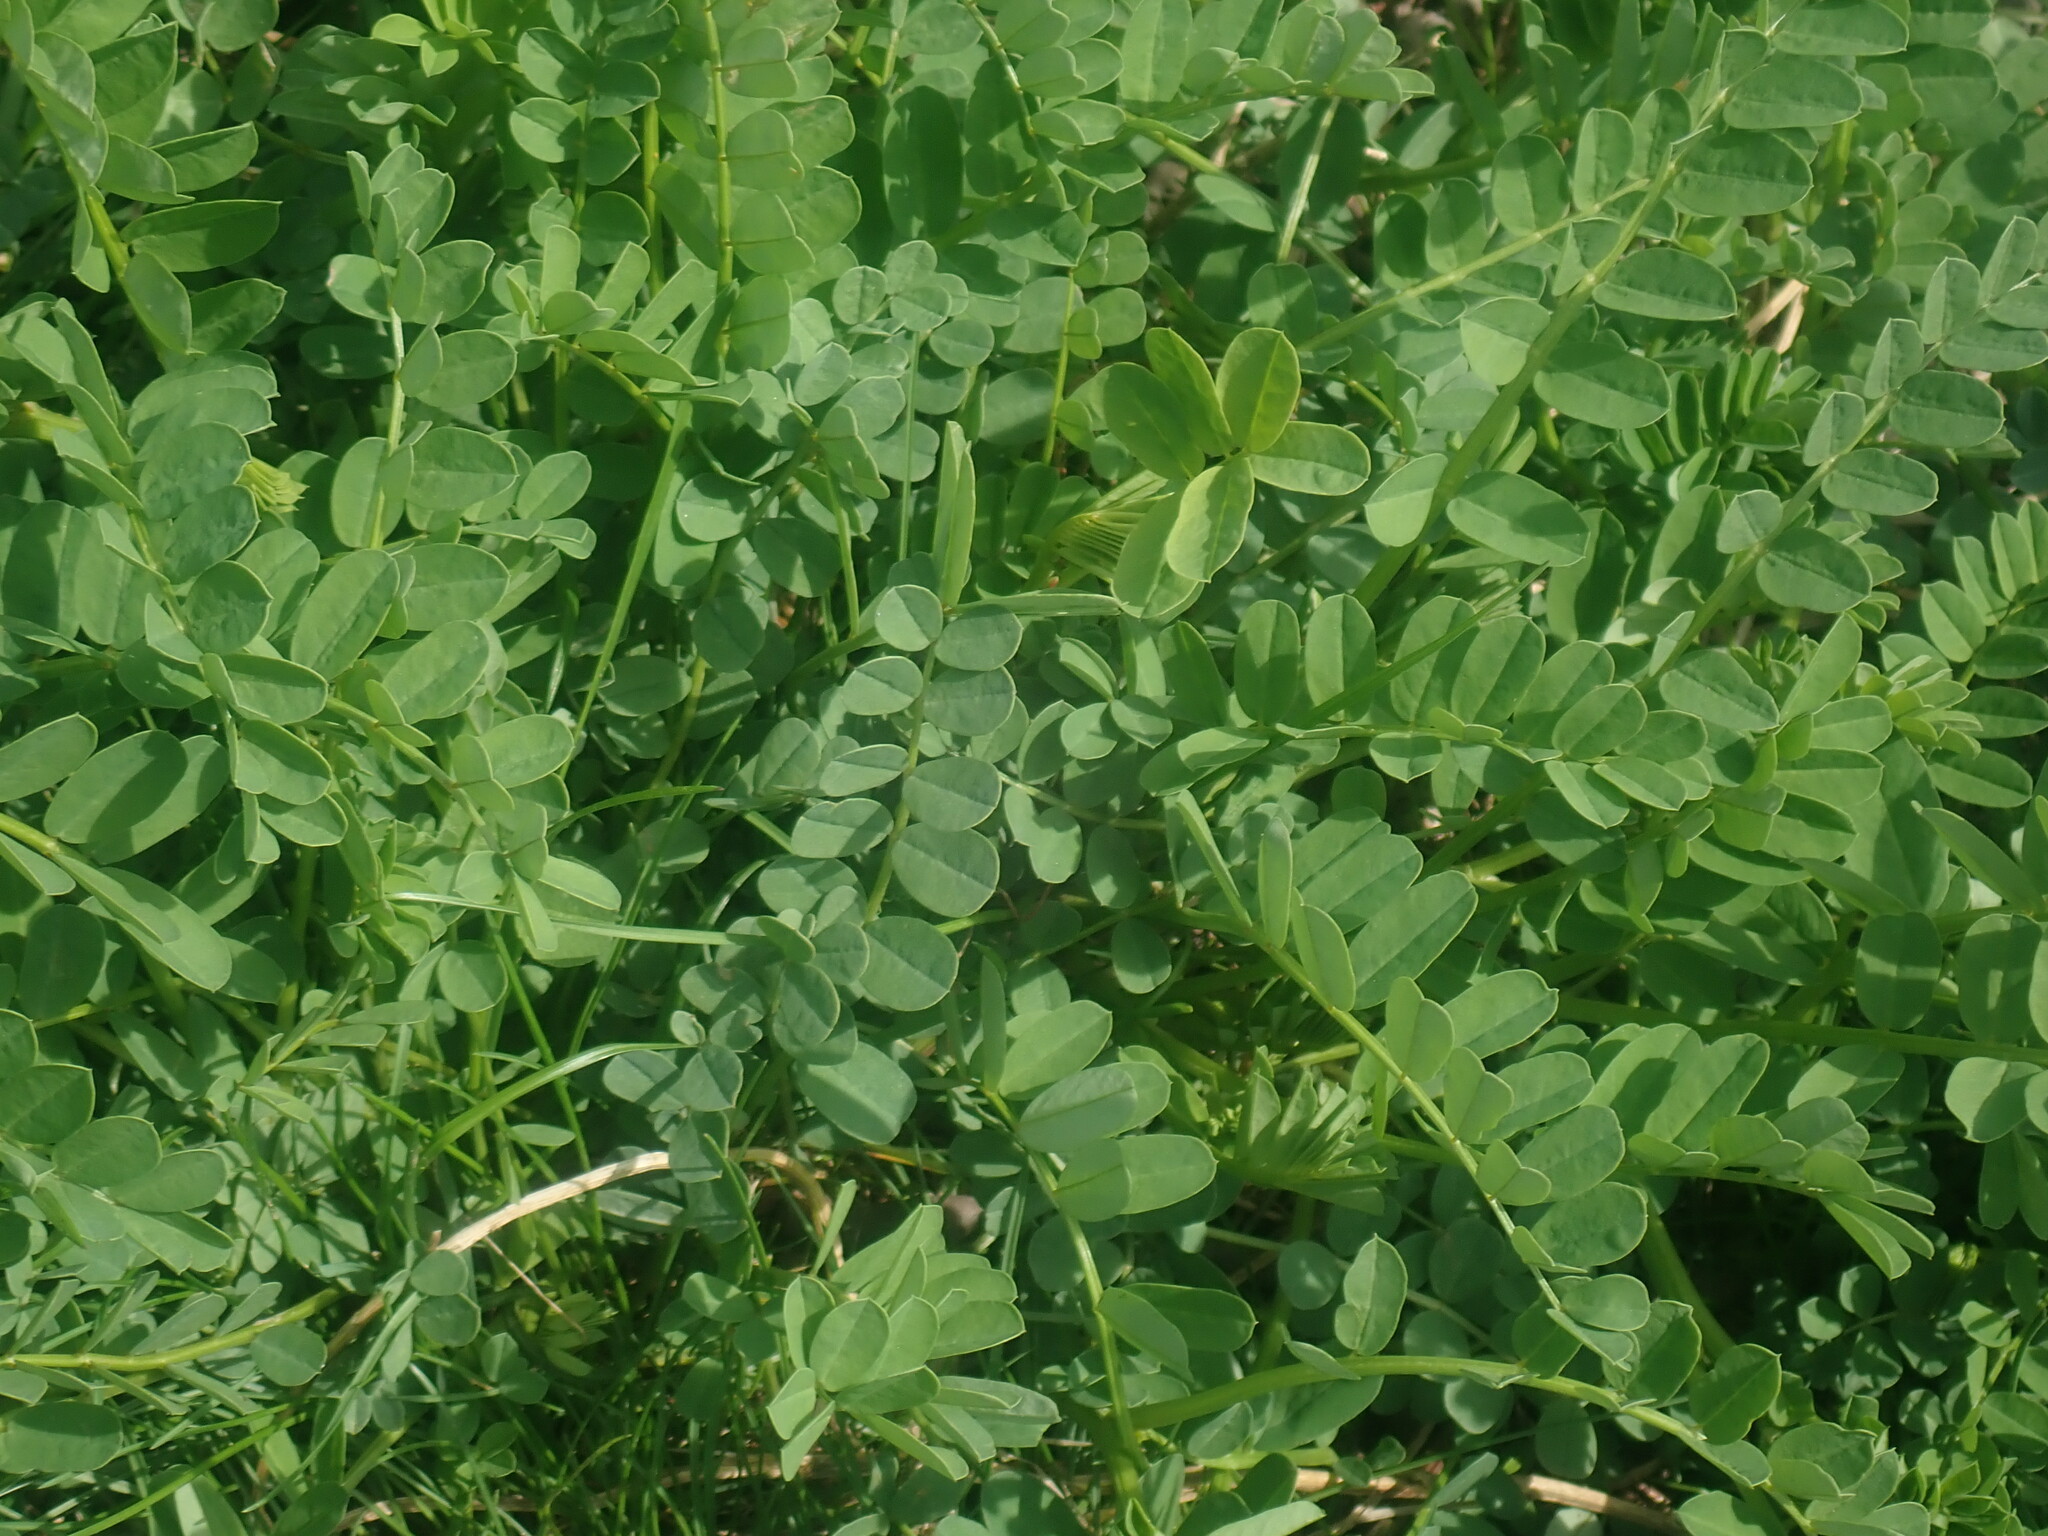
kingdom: Plantae
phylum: Tracheophyta
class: Magnoliopsida
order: Fabales
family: Fabaceae
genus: Coronilla
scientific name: Coronilla varia
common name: Crownvetch
